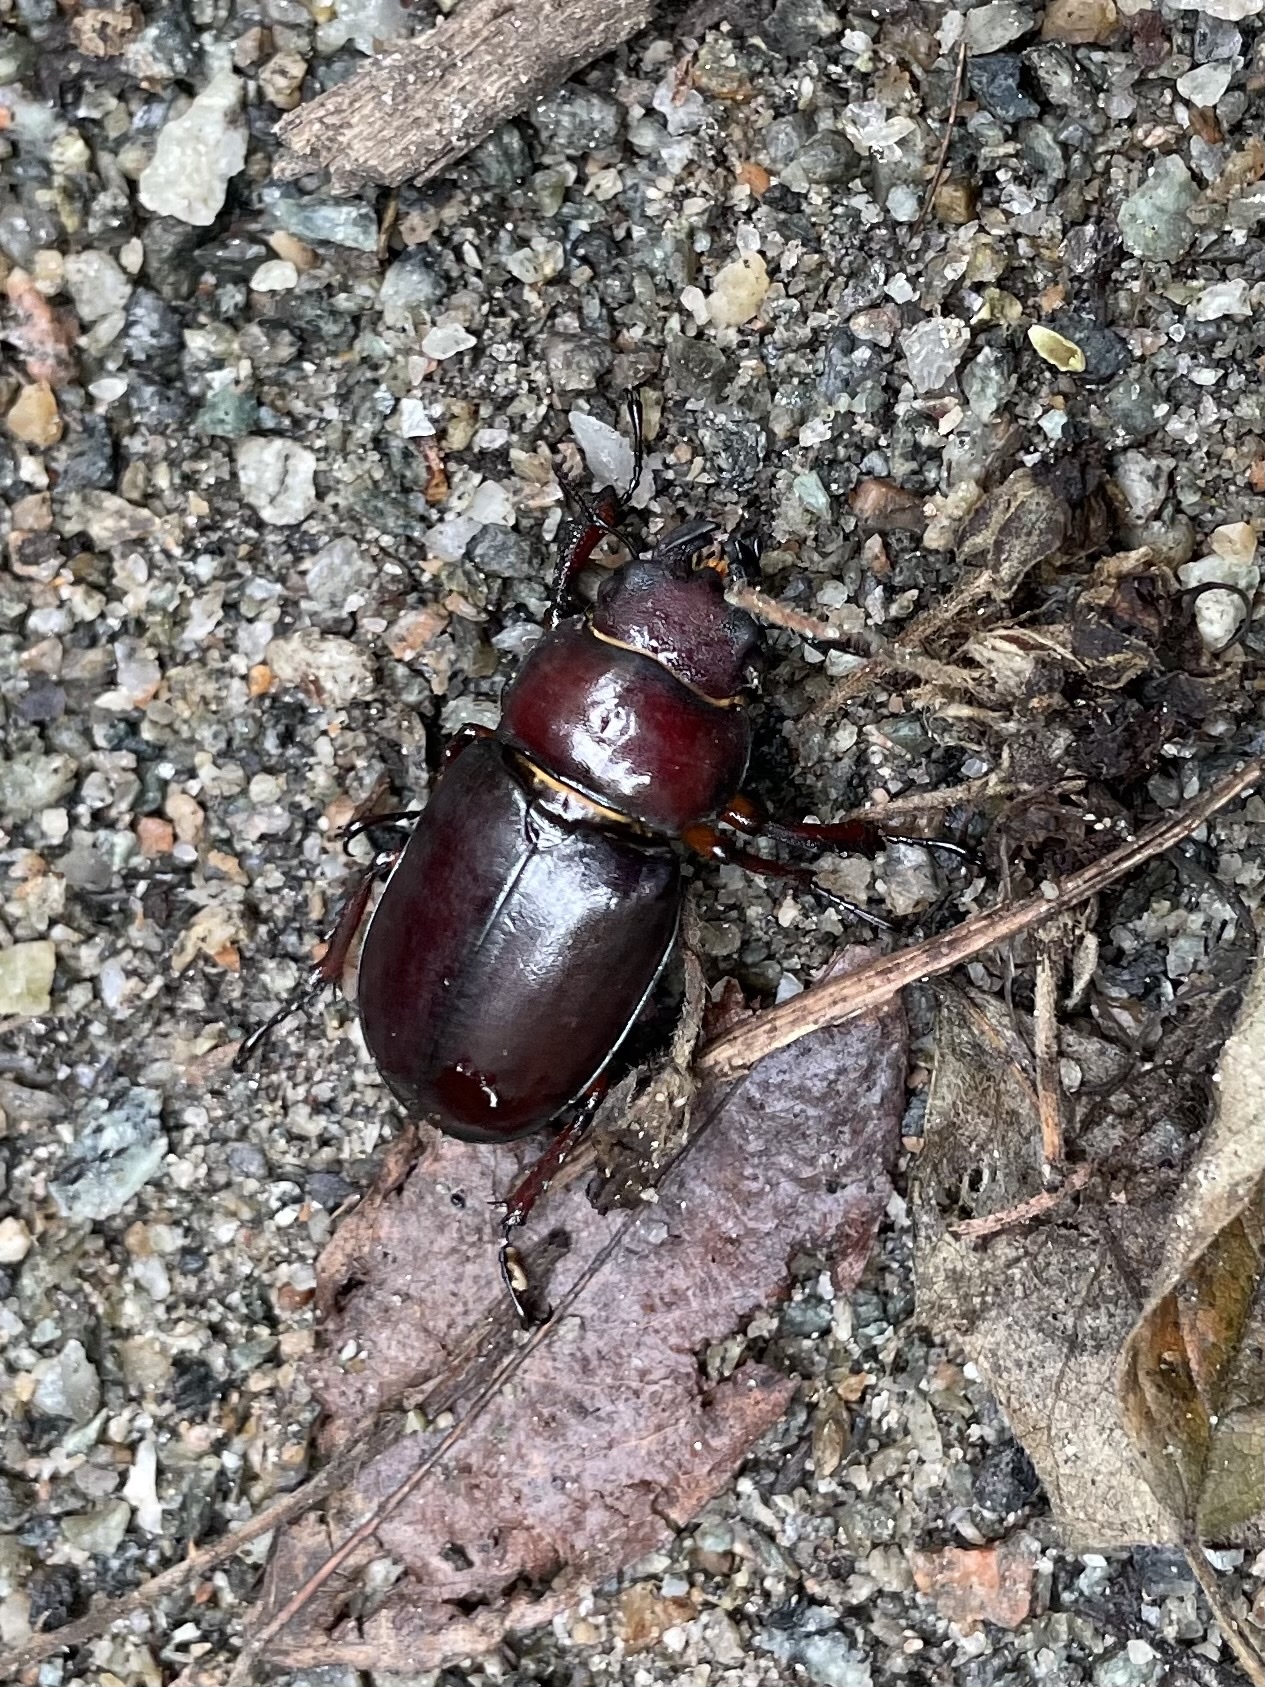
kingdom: Animalia
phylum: Arthropoda
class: Insecta
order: Coleoptera
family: Lucanidae
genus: Lucanus
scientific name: Lucanus capreolus
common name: Stag beetle
